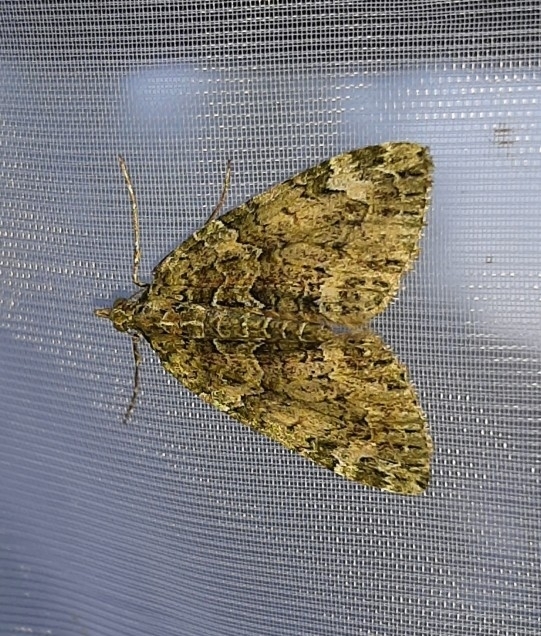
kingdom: Animalia
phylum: Arthropoda
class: Insecta
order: Lepidoptera
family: Geometridae
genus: Chloroclysta
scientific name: Chloroclysta siterata
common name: Red-green carpet
